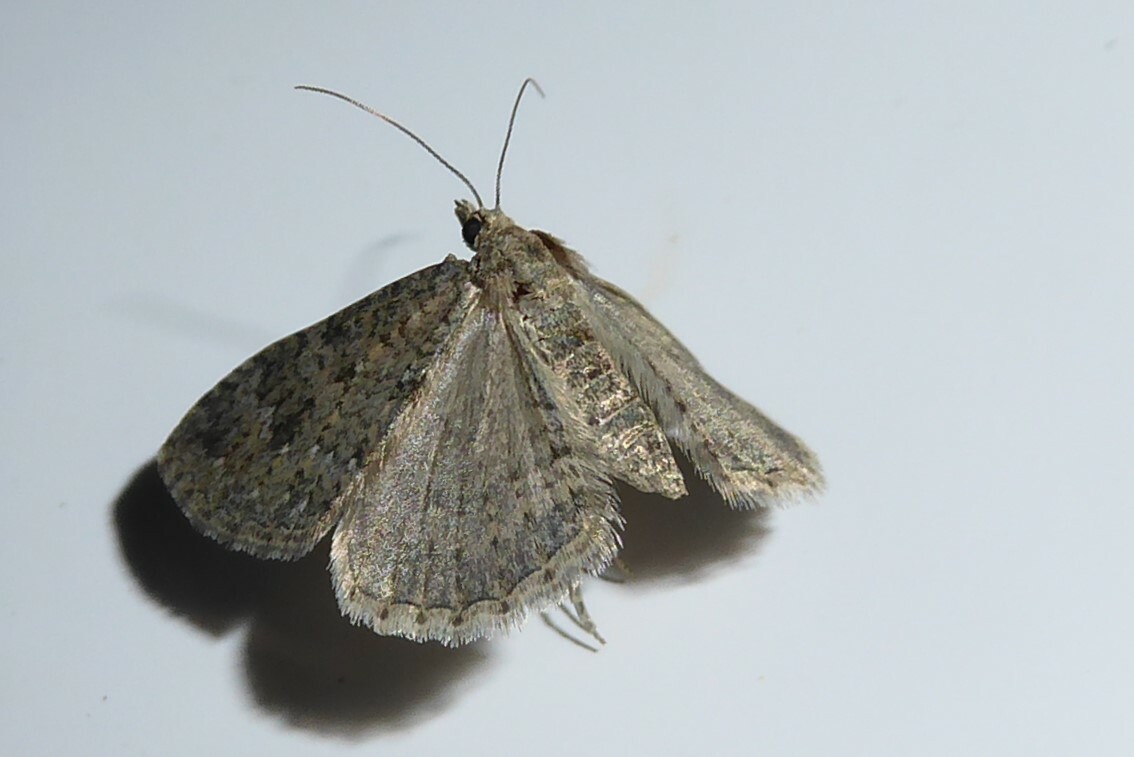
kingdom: Animalia
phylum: Arthropoda
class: Insecta
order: Lepidoptera
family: Geometridae
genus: Helastia
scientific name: Helastia corcularia
